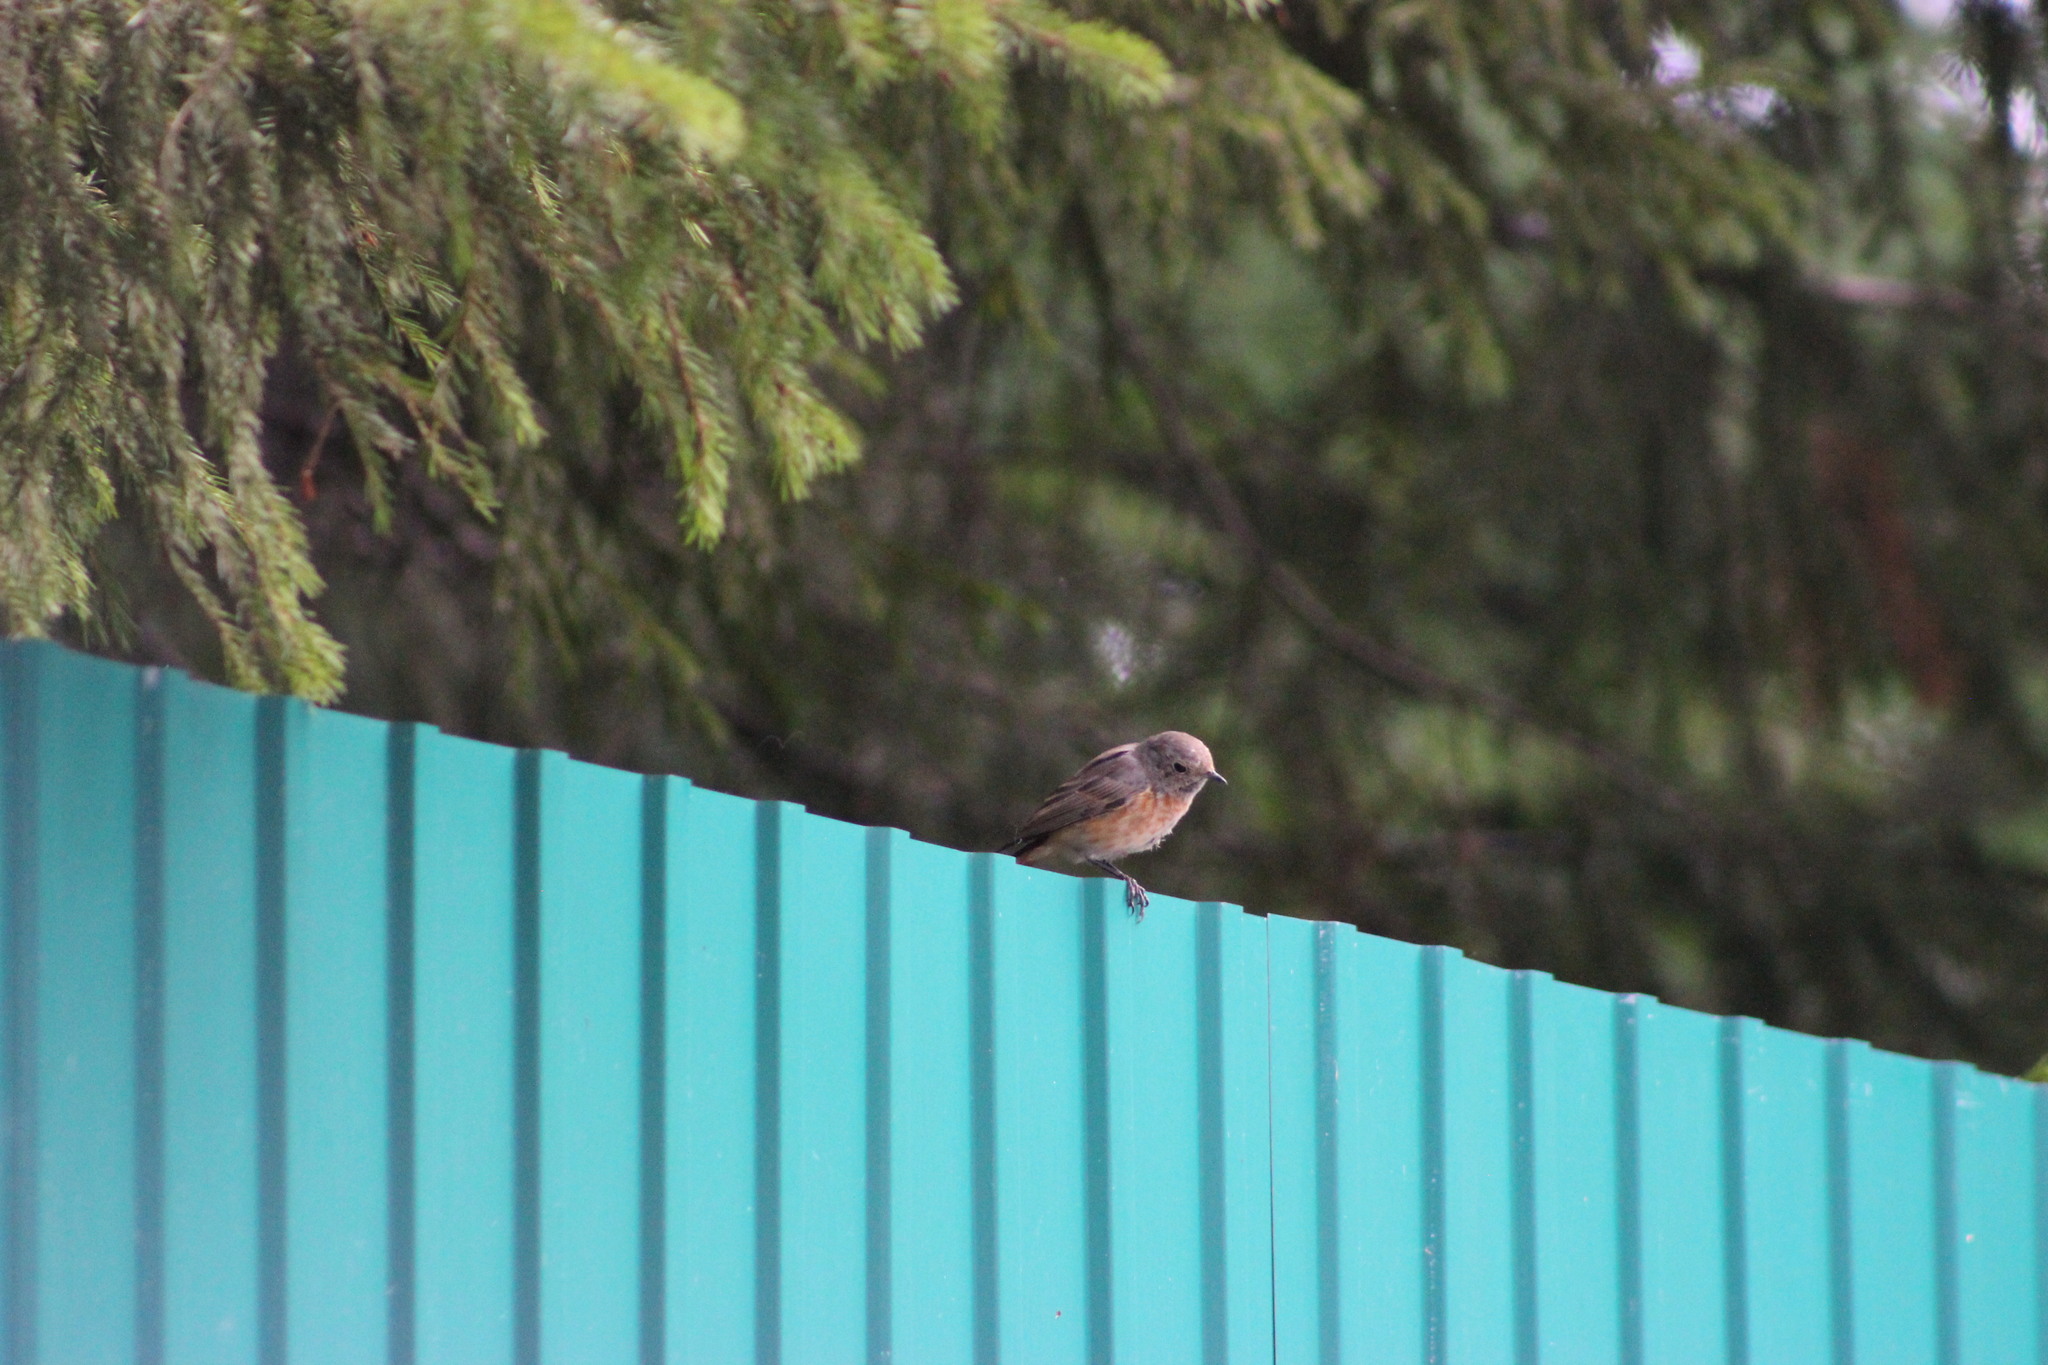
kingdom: Animalia
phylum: Chordata
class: Aves
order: Passeriformes
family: Muscicapidae
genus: Phoenicurus
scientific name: Phoenicurus phoenicurus
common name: Common redstart
